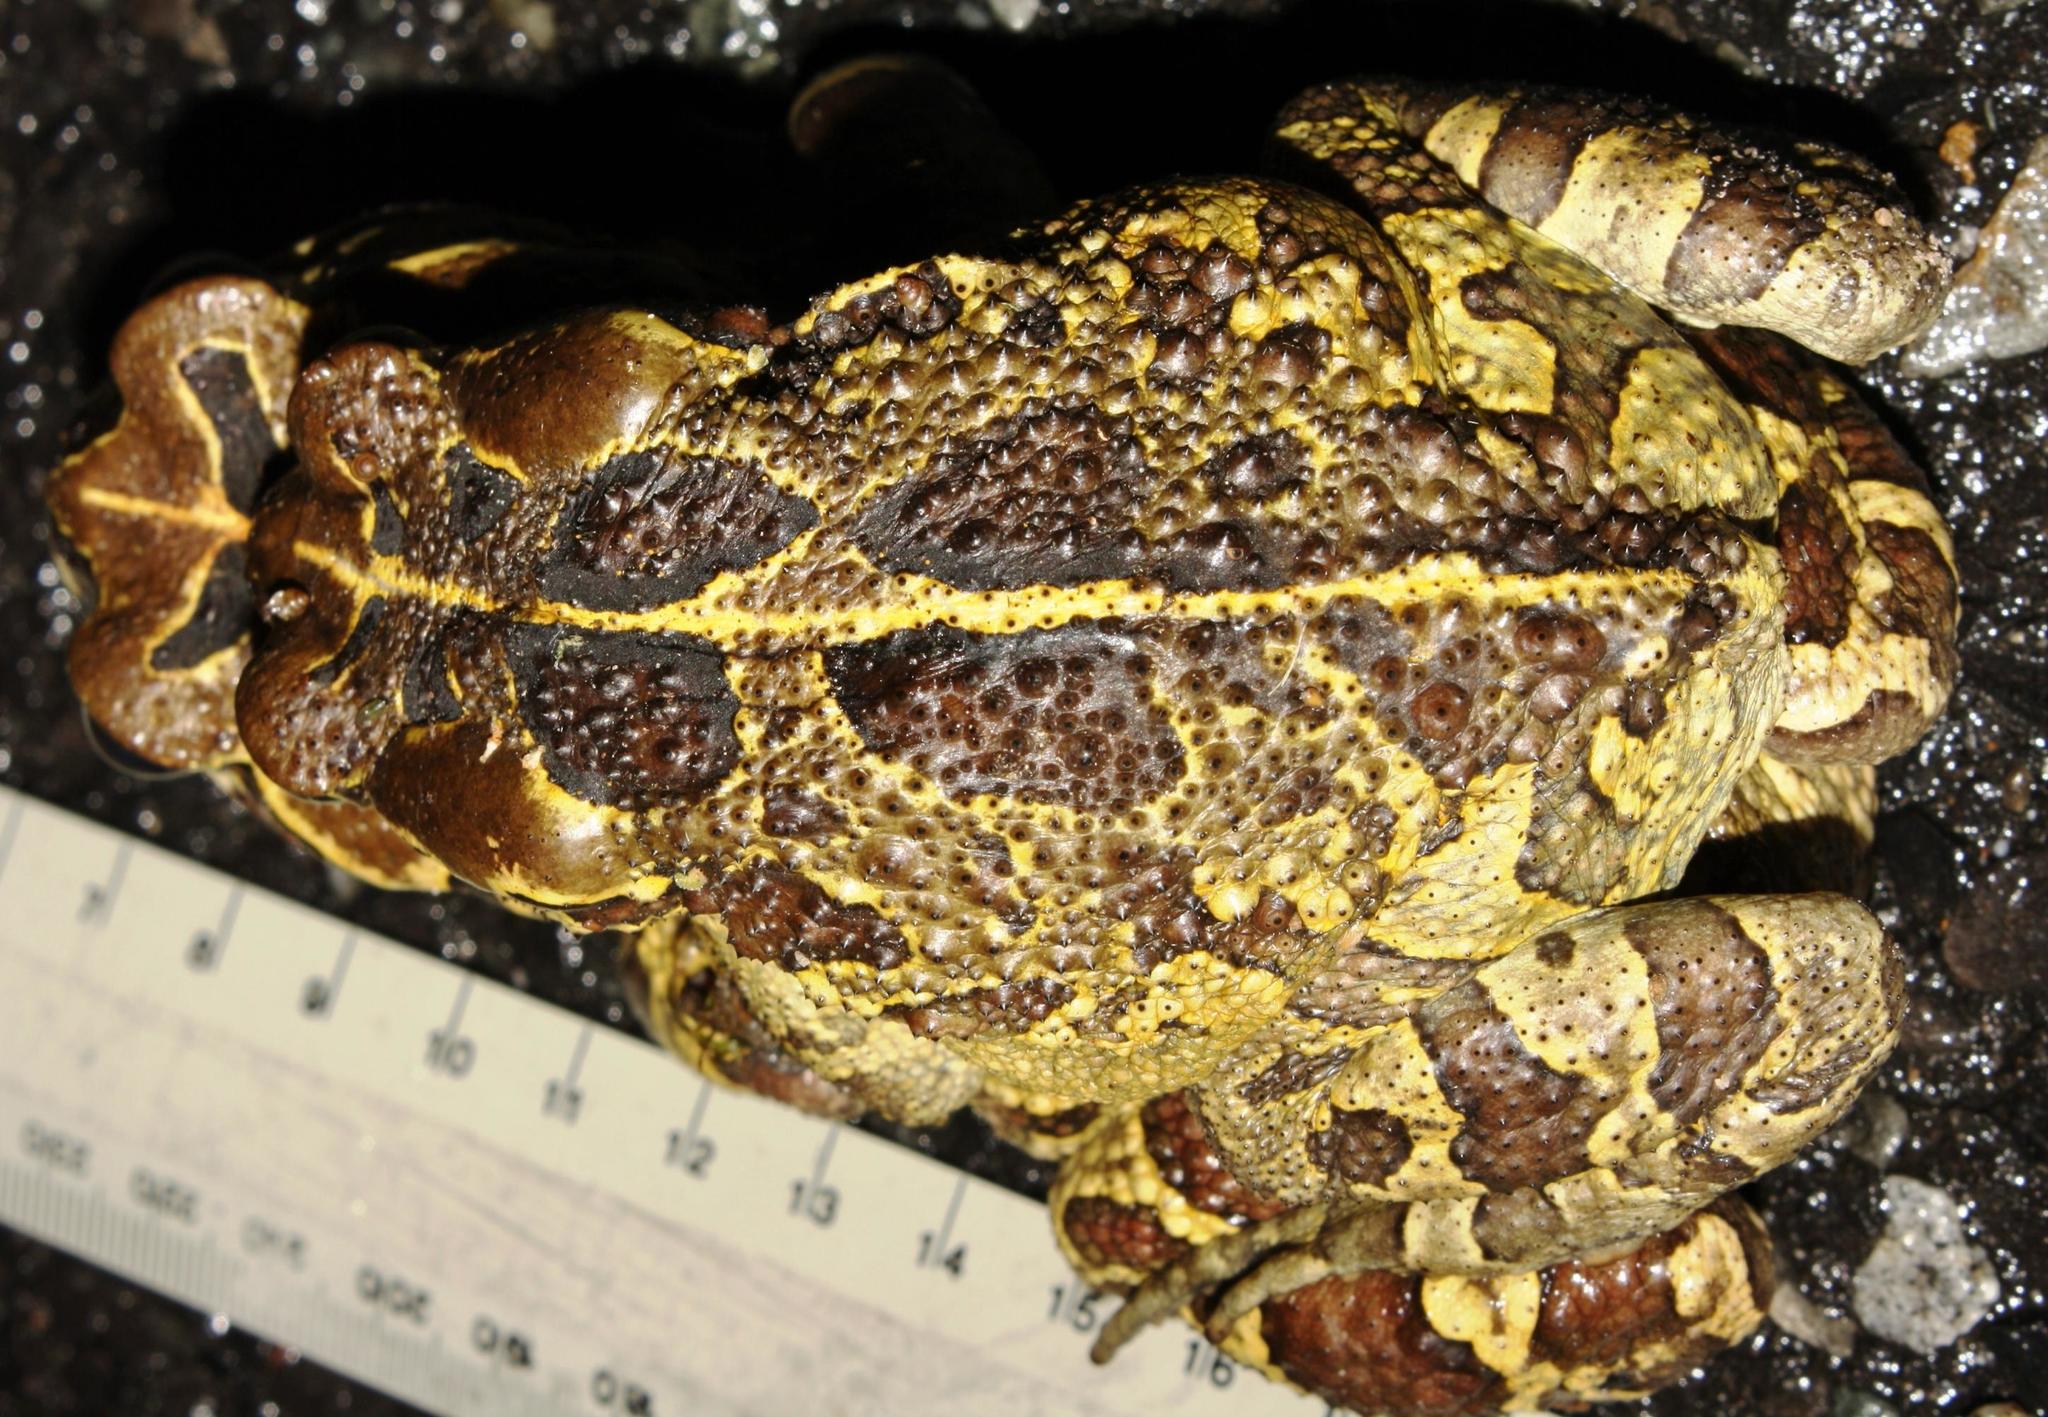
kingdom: Animalia
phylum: Chordata
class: Amphibia
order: Anura
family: Bufonidae
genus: Sclerophrys
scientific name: Sclerophrys pantherina
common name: Panther toad
